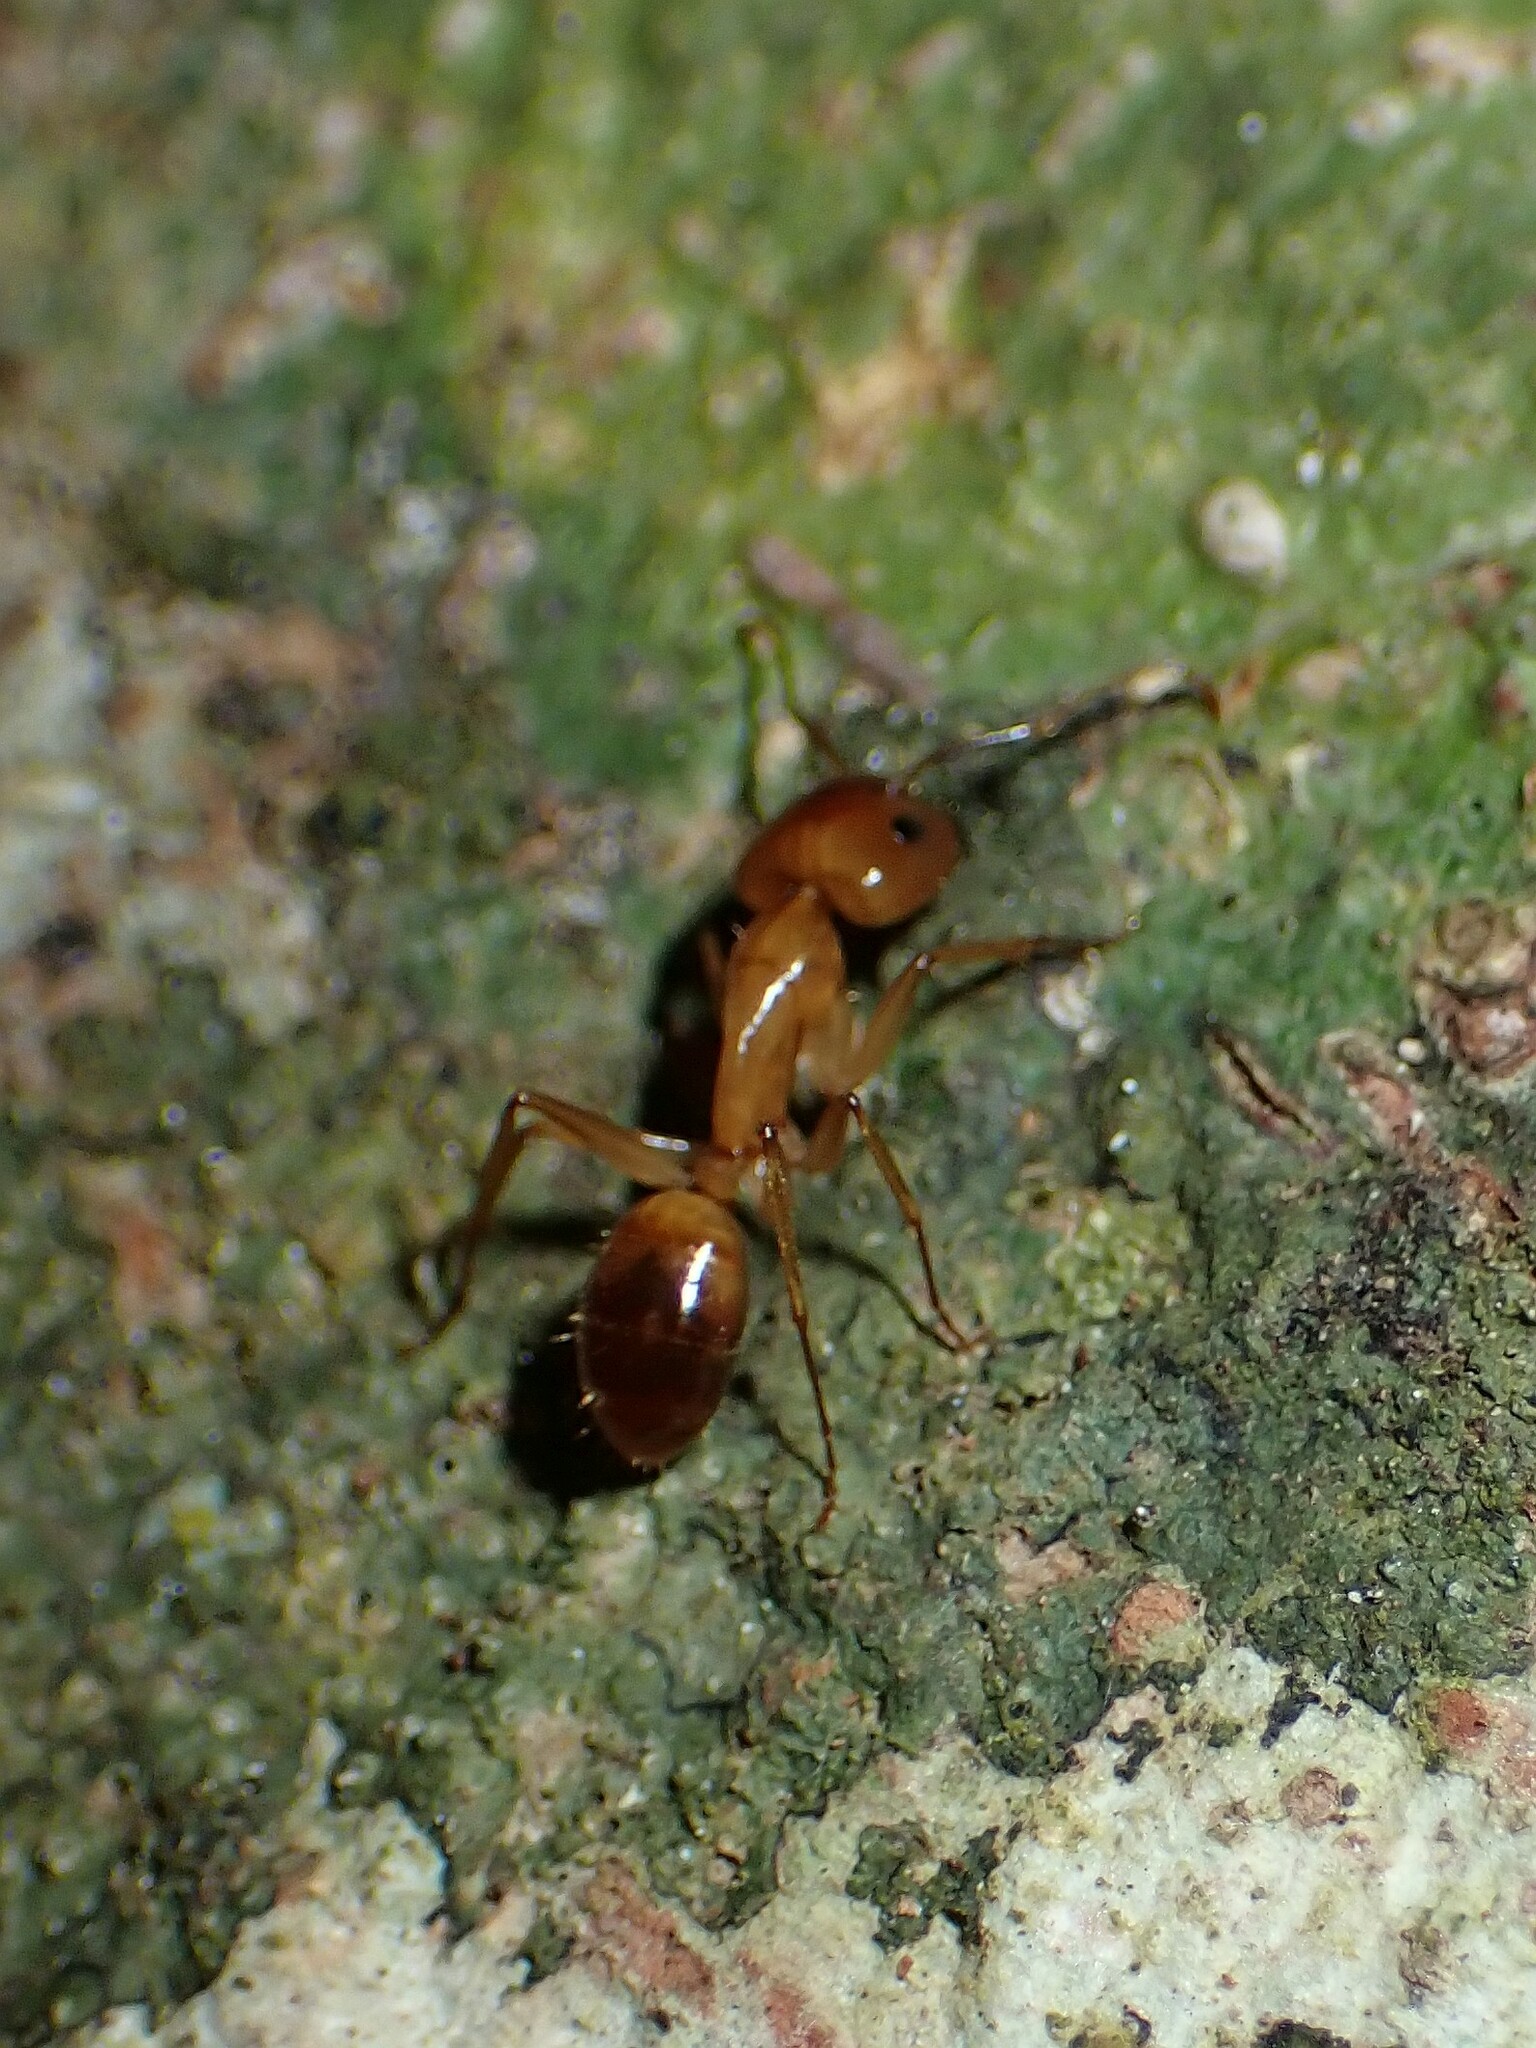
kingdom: Animalia
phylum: Arthropoda
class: Insecta
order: Hymenoptera
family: Formicidae
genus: Camponotus
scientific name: Camponotus chloroticus
